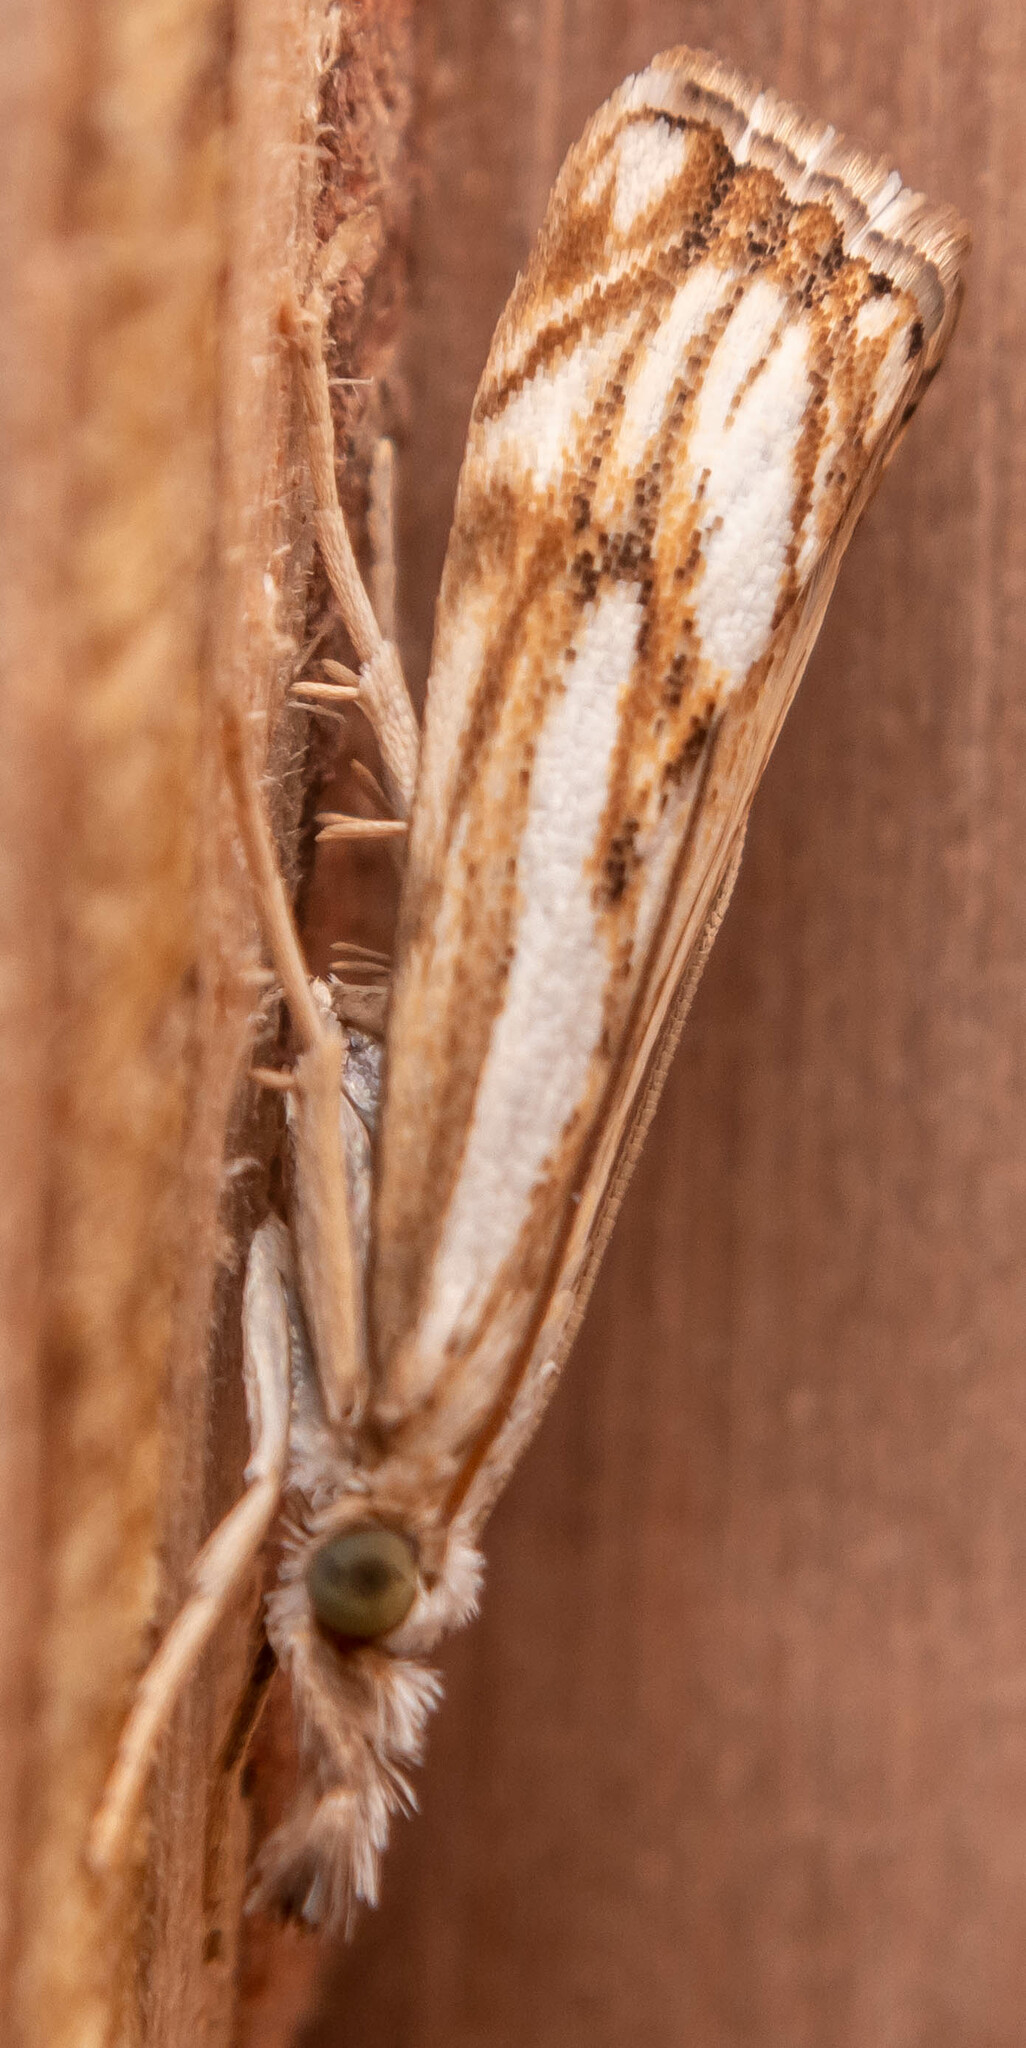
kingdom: Animalia
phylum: Arthropoda
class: Insecta
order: Lepidoptera
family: Crambidae
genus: Catoptria
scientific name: Catoptria falsella
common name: Chequered grass-veneer
